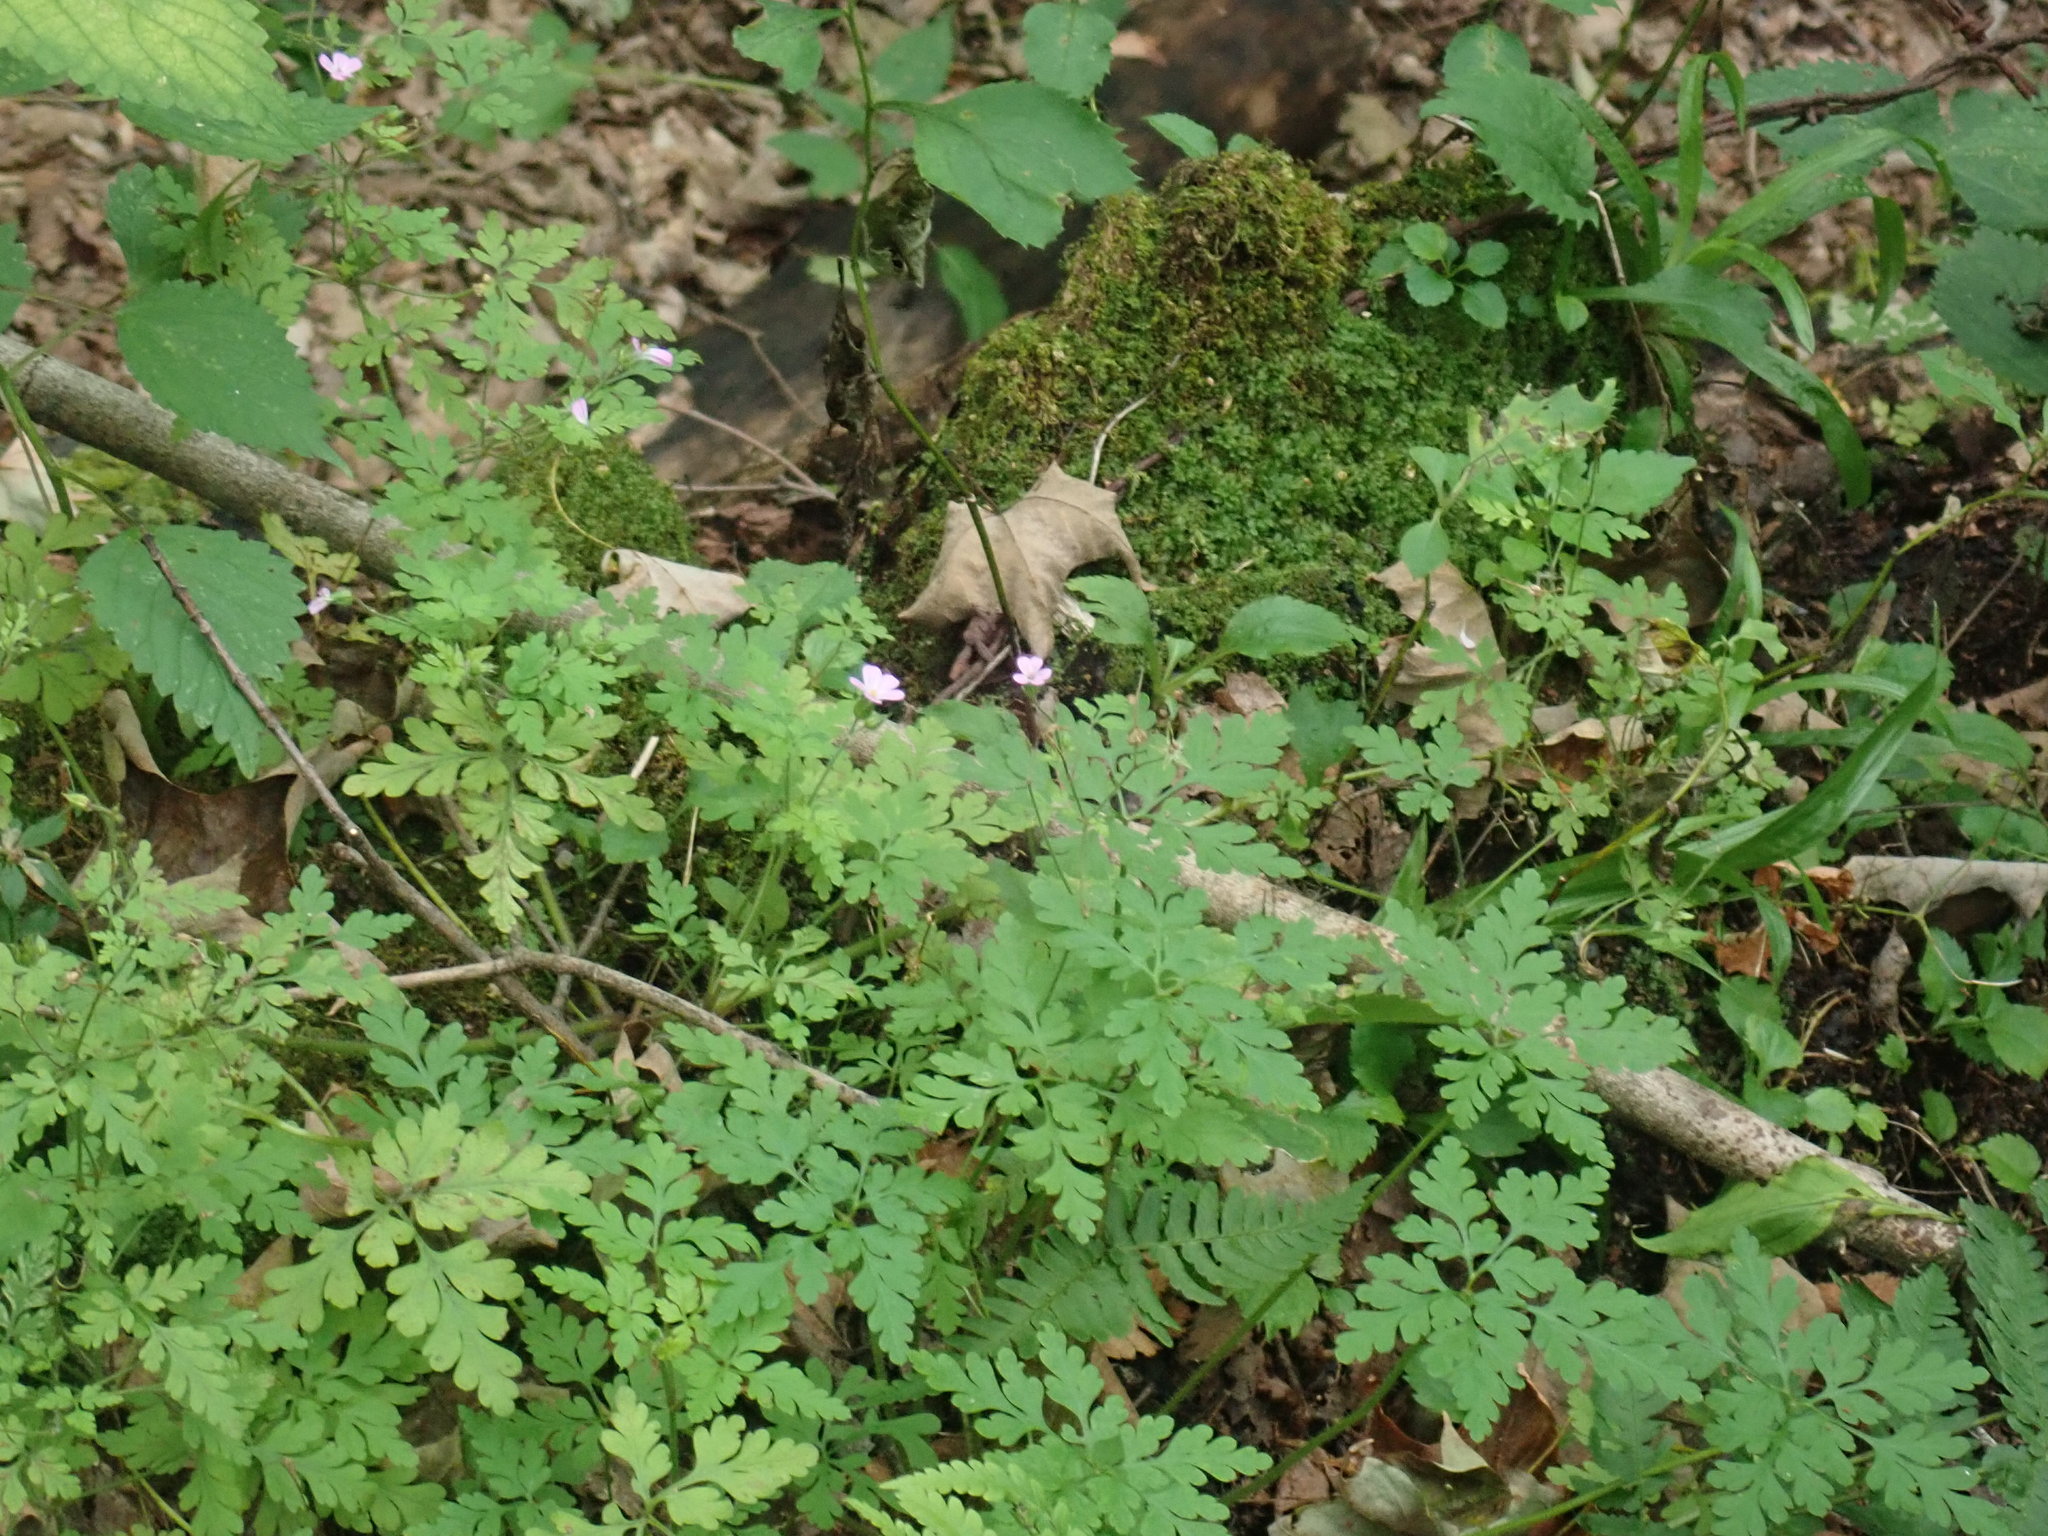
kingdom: Plantae
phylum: Tracheophyta
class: Magnoliopsida
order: Geraniales
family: Geraniaceae
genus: Geranium
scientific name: Geranium robertianum
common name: Herb-robert
